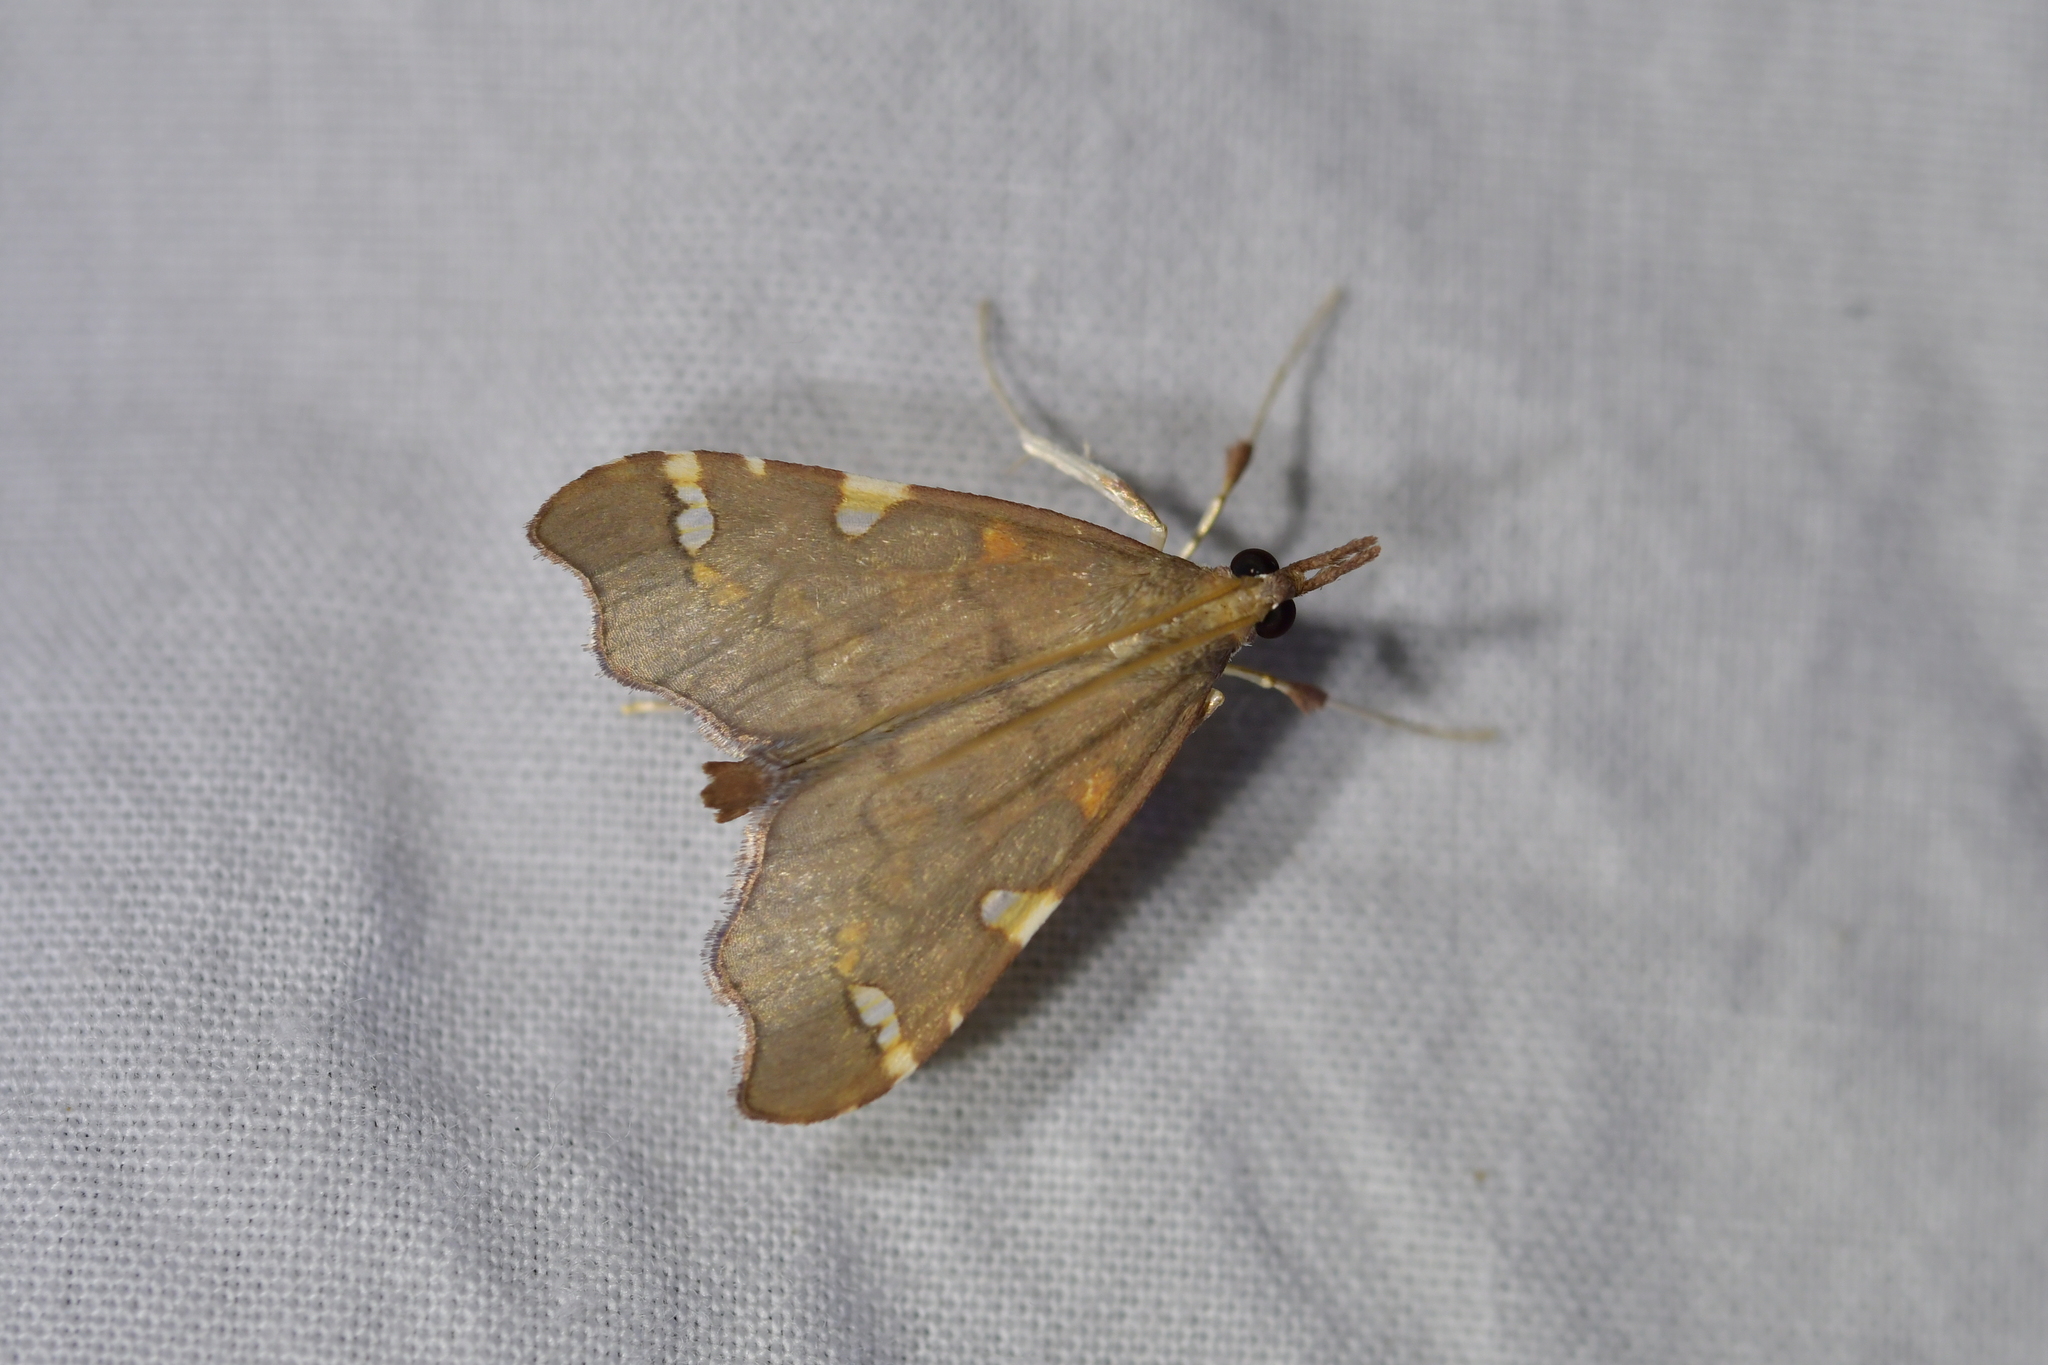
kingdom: Animalia
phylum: Arthropoda
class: Insecta
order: Lepidoptera
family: Crambidae
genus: Deana
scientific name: Deana hybreasalis
